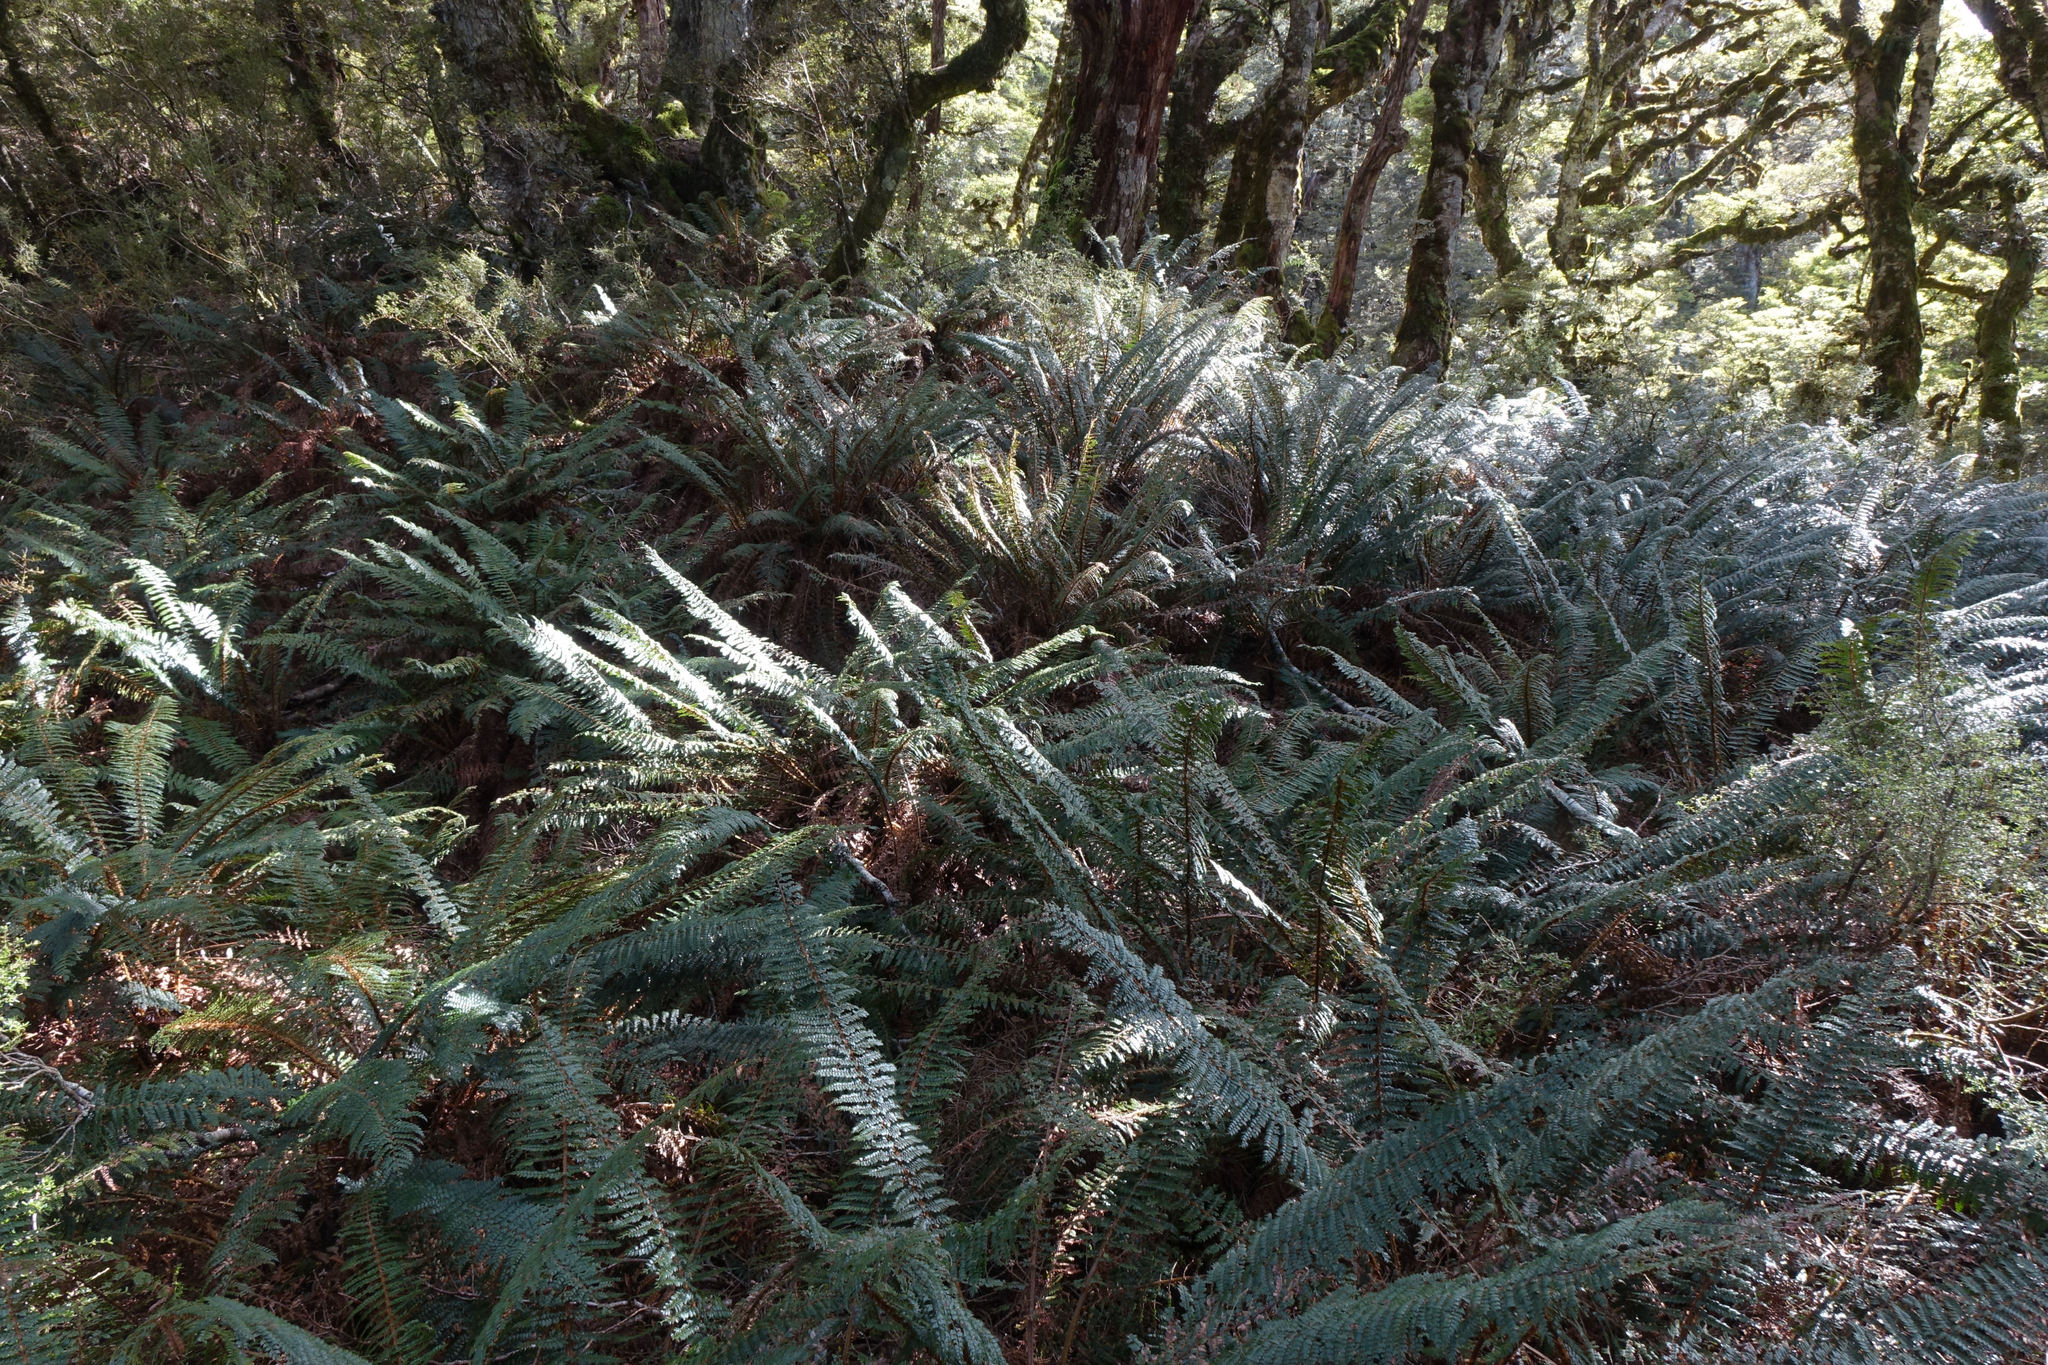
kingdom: Plantae
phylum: Tracheophyta
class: Polypodiopsida
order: Polypodiales
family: Dryopteridaceae
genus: Polystichum
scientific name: Polystichum vestitum
